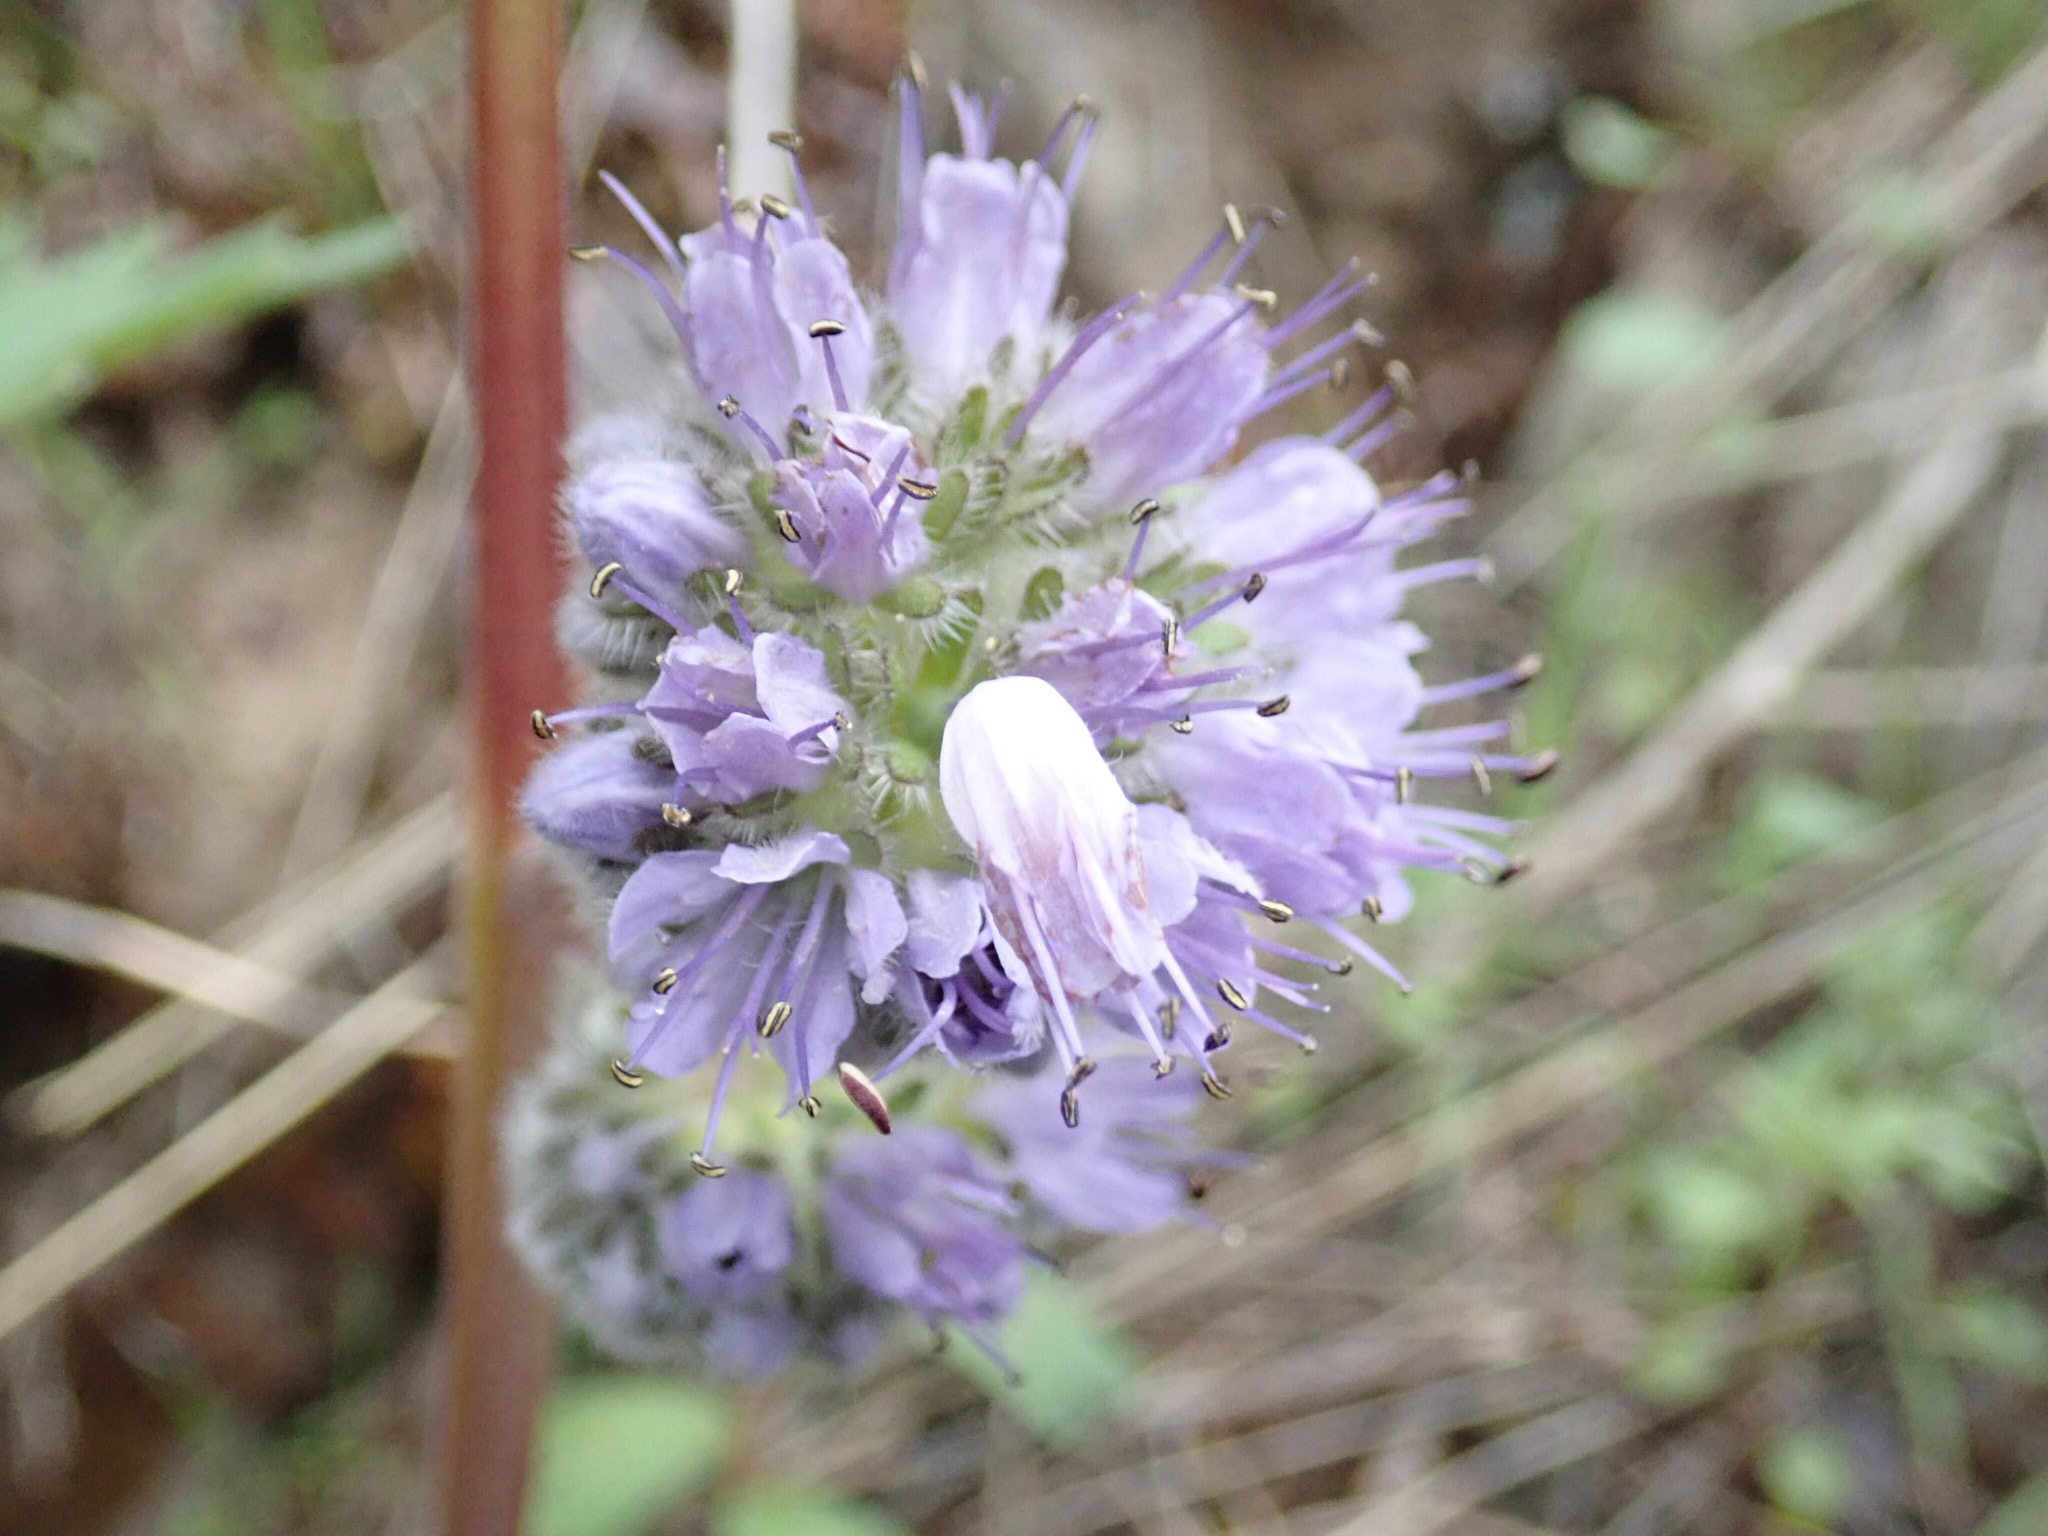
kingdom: Plantae
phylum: Tracheophyta
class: Magnoliopsida
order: Boraginales
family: Hydrophyllaceae
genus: Hydrophyllum
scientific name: Hydrophyllum capitatum
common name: Woollen-breeches
